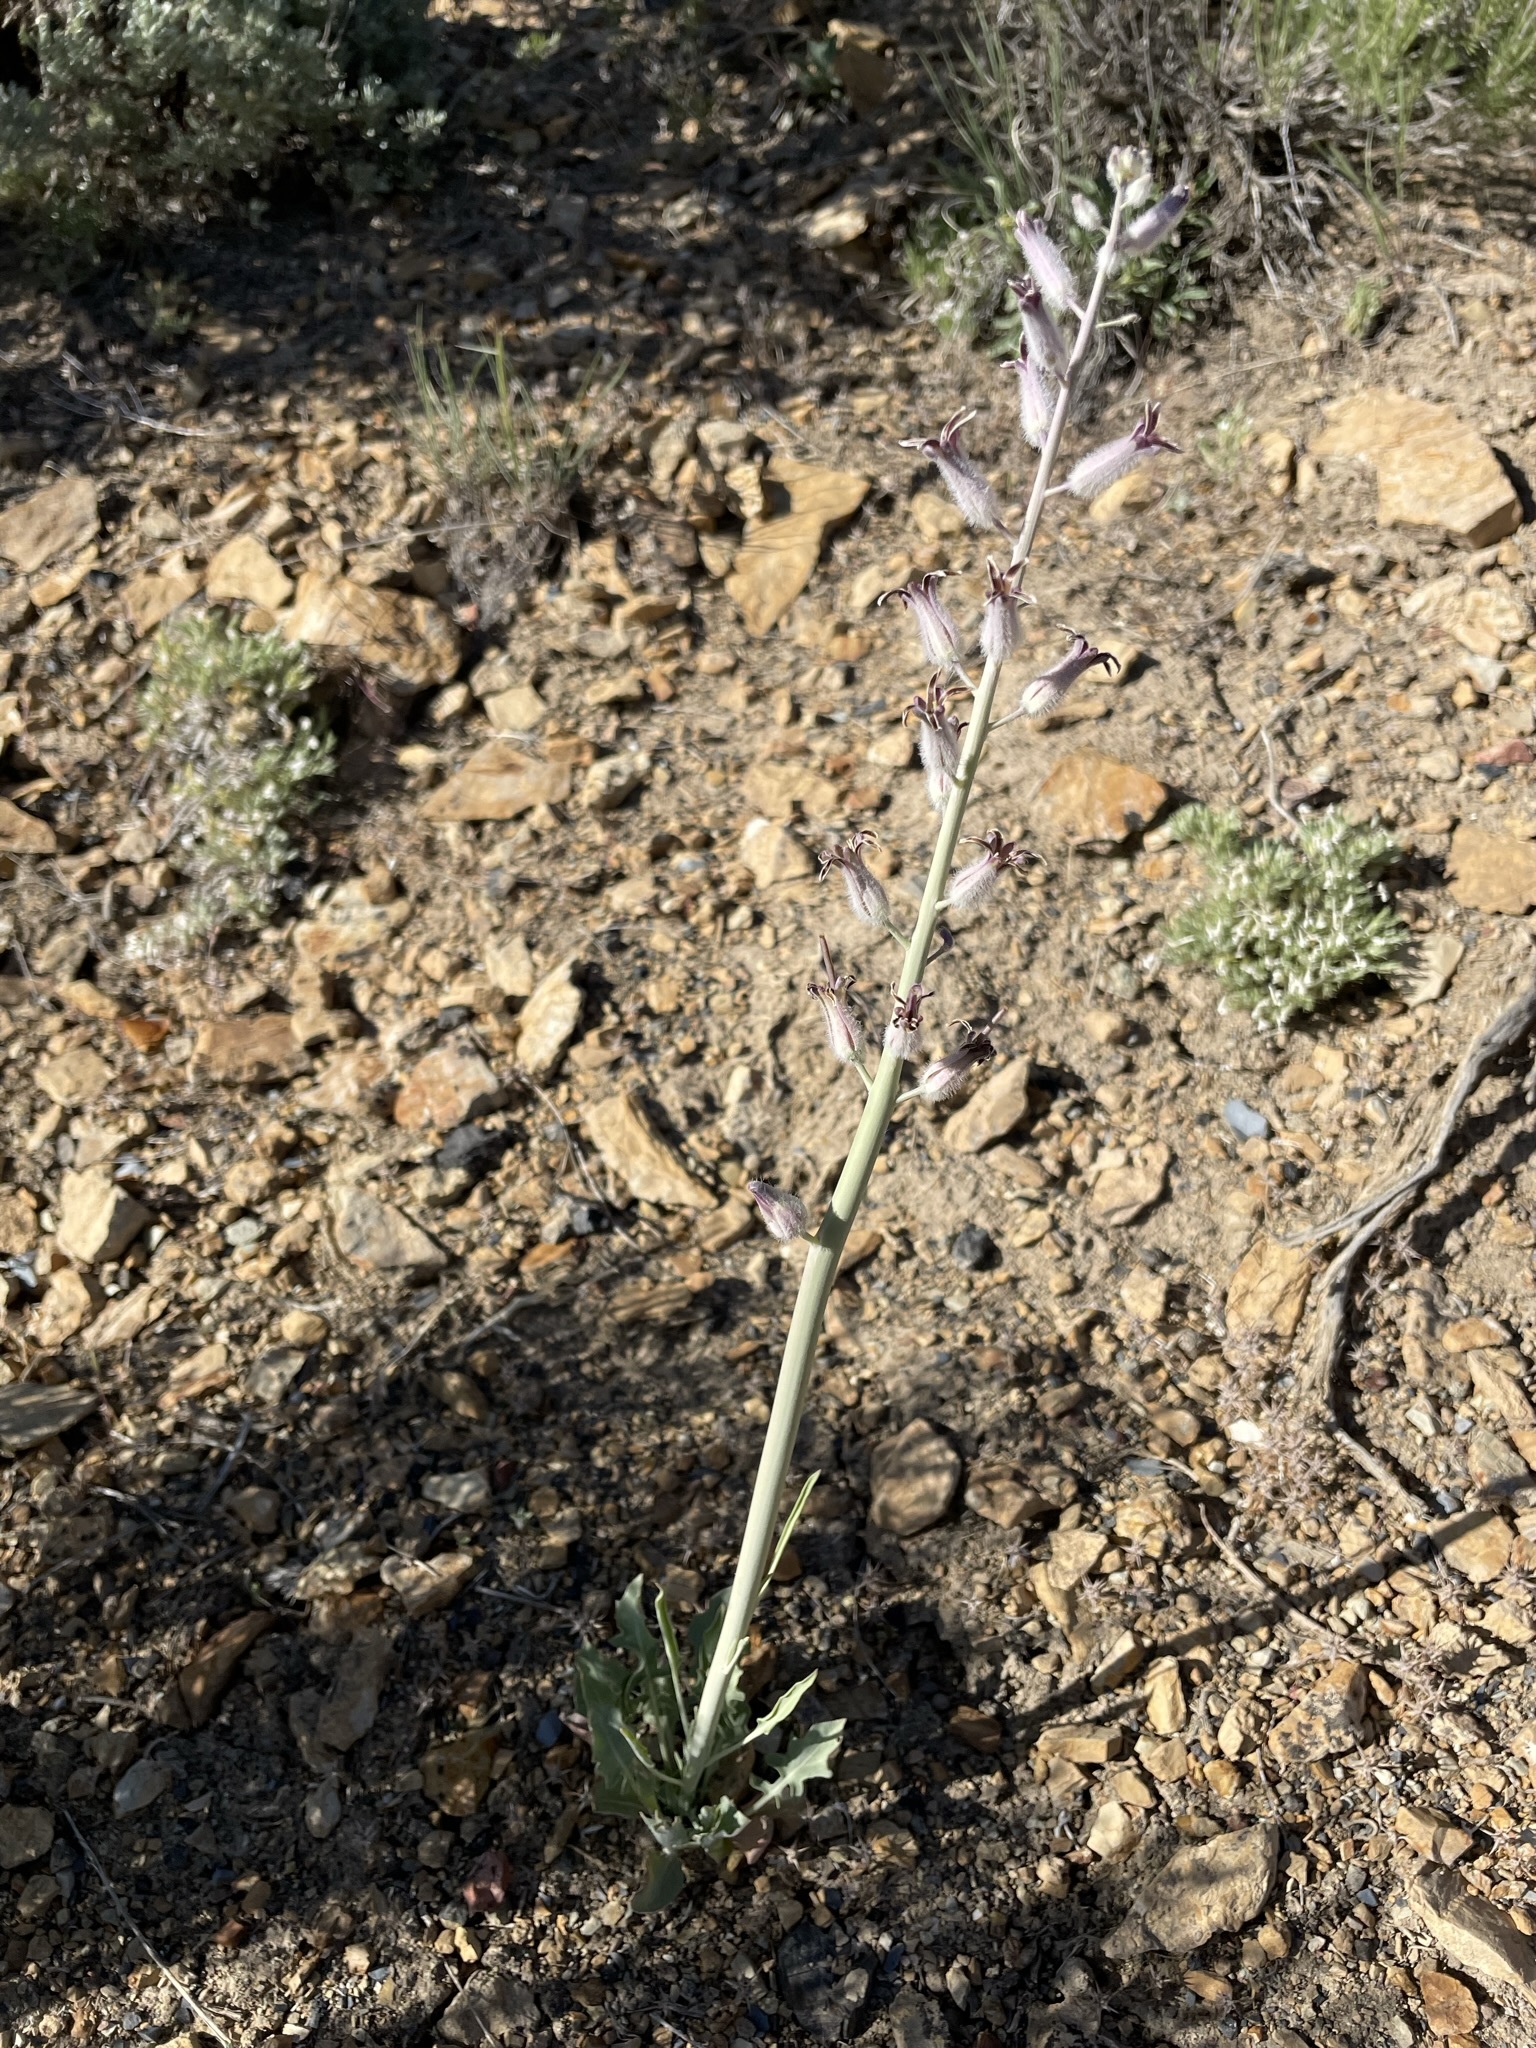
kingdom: Plantae
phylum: Tracheophyta
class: Magnoliopsida
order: Brassicales
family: Brassicaceae
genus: Streptanthus
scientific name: Streptanthus crassicaulis
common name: Thick-stem wild cabbage
